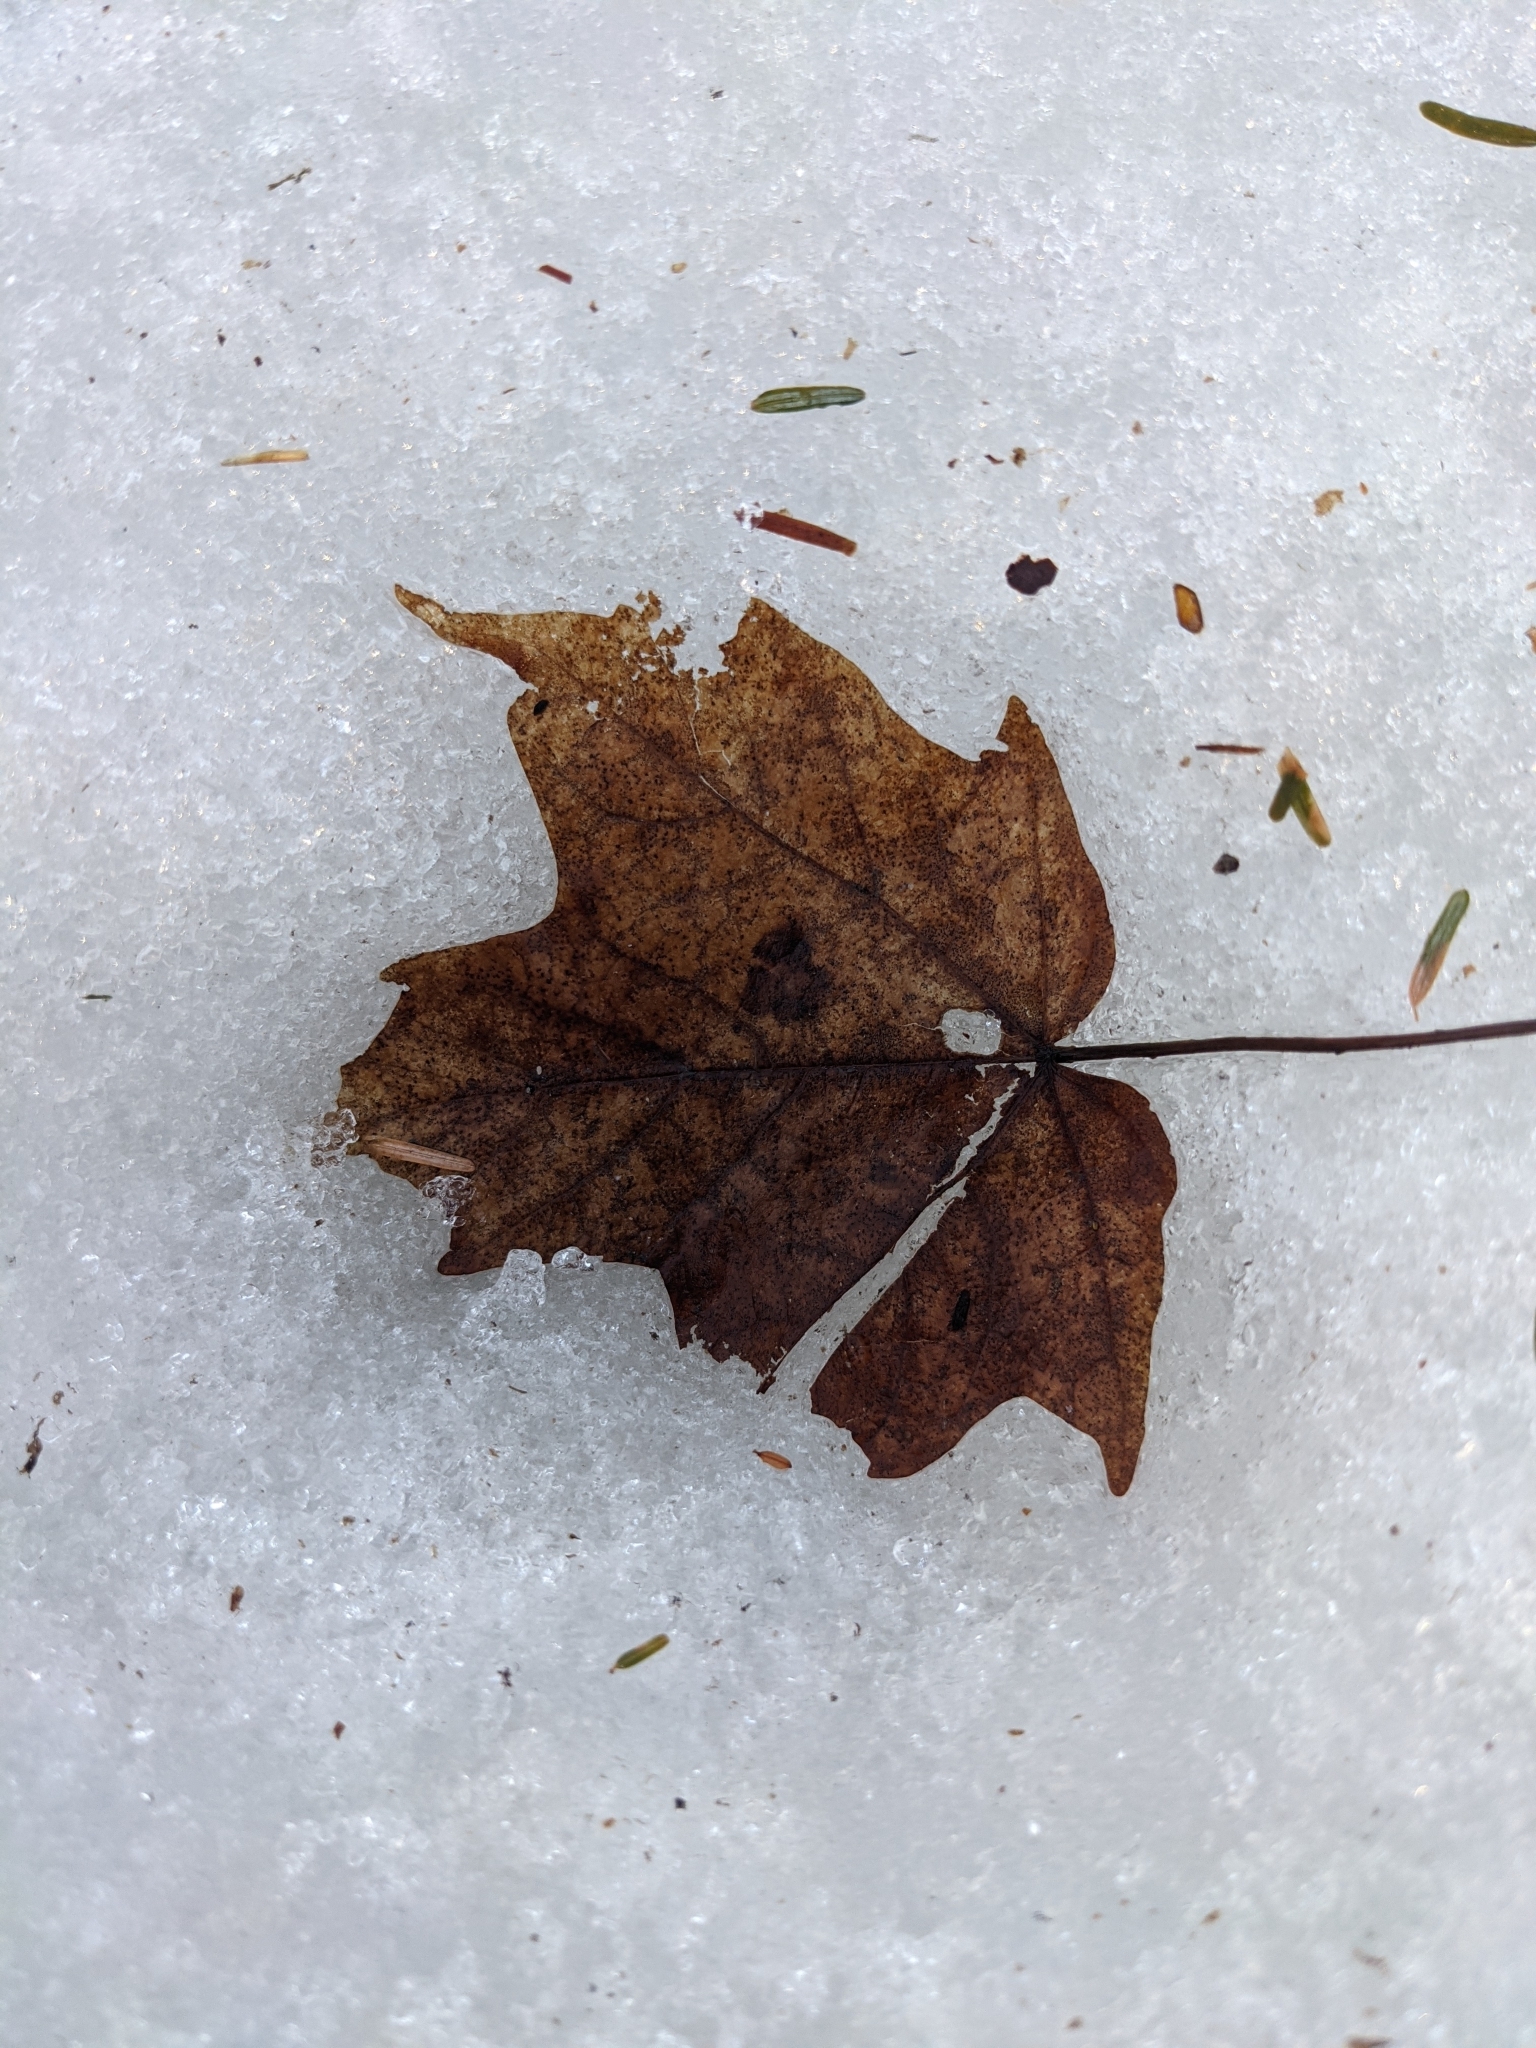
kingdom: Plantae
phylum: Tracheophyta
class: Magnoliopsida
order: Sapindales
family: Sapindaceae
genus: Acer
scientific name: Acer saccharum
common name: Sugar maple
